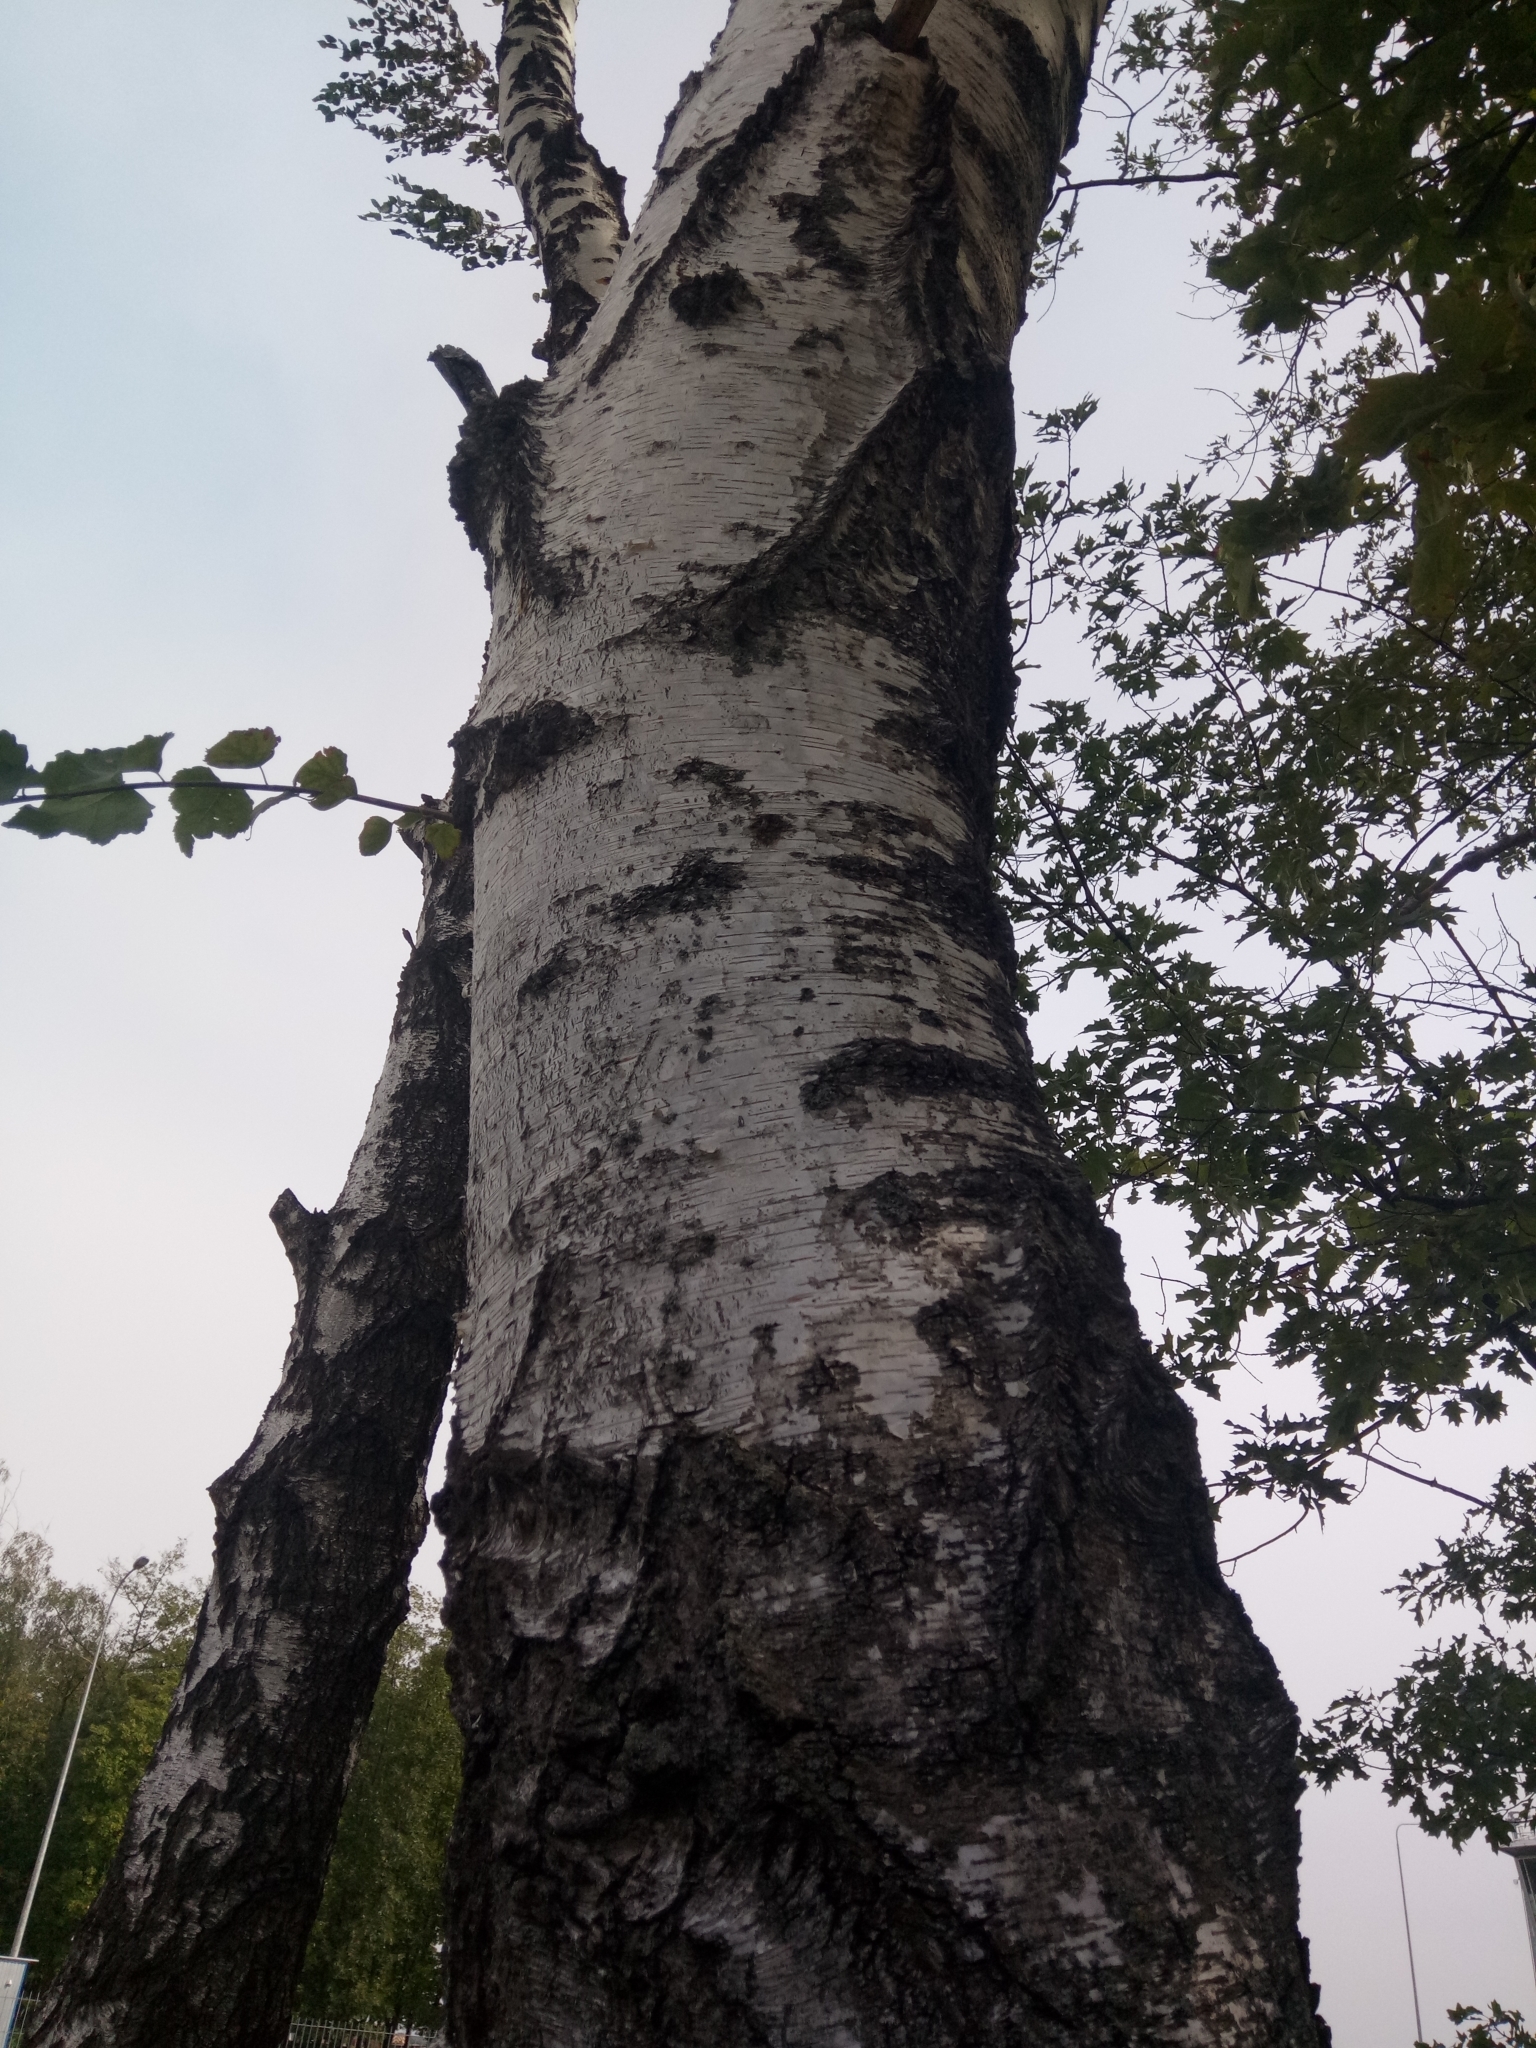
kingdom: Plantae
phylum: Tracheophyta
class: Magnoliopsida
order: Fagales
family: Betulaceae
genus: Betula
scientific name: Betula pendula
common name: Silver birch
